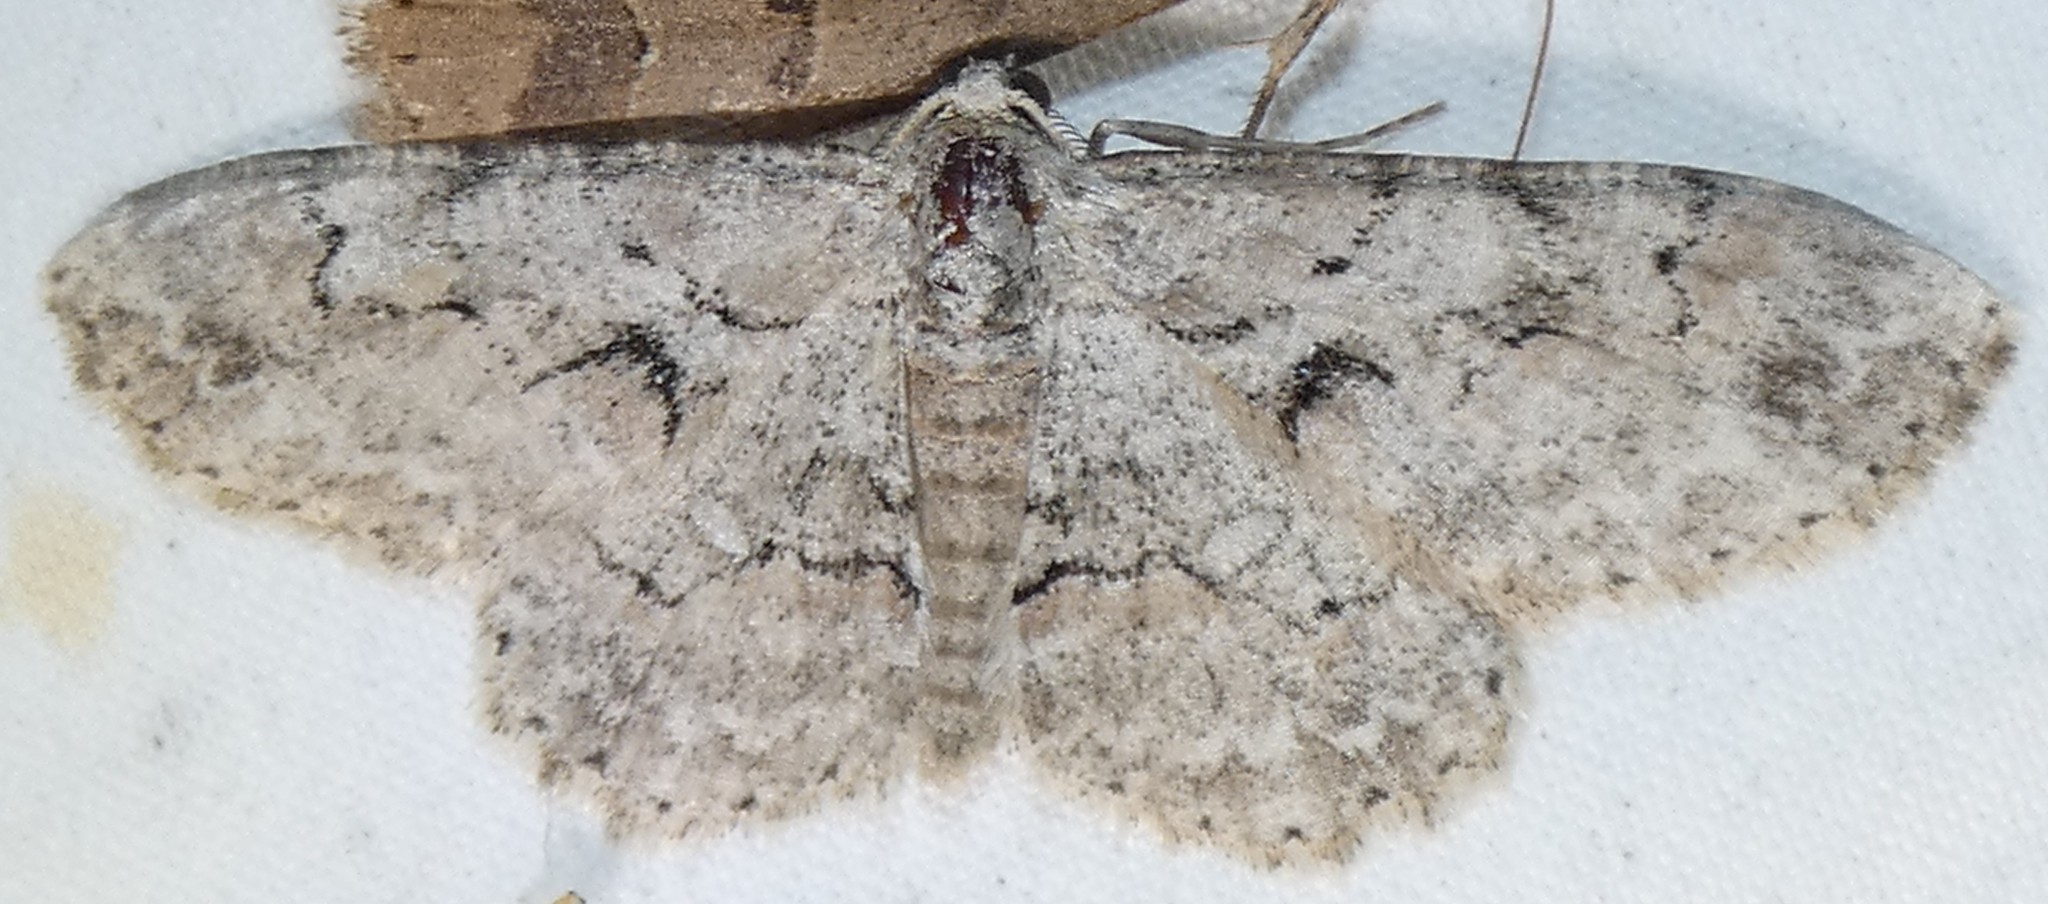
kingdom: Animalia
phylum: Arthropoda
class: Insecta
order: Lepidoptera
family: Geometridae
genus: Iridopsis
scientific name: Iridopsis defectaria
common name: Brown-shaded gray
